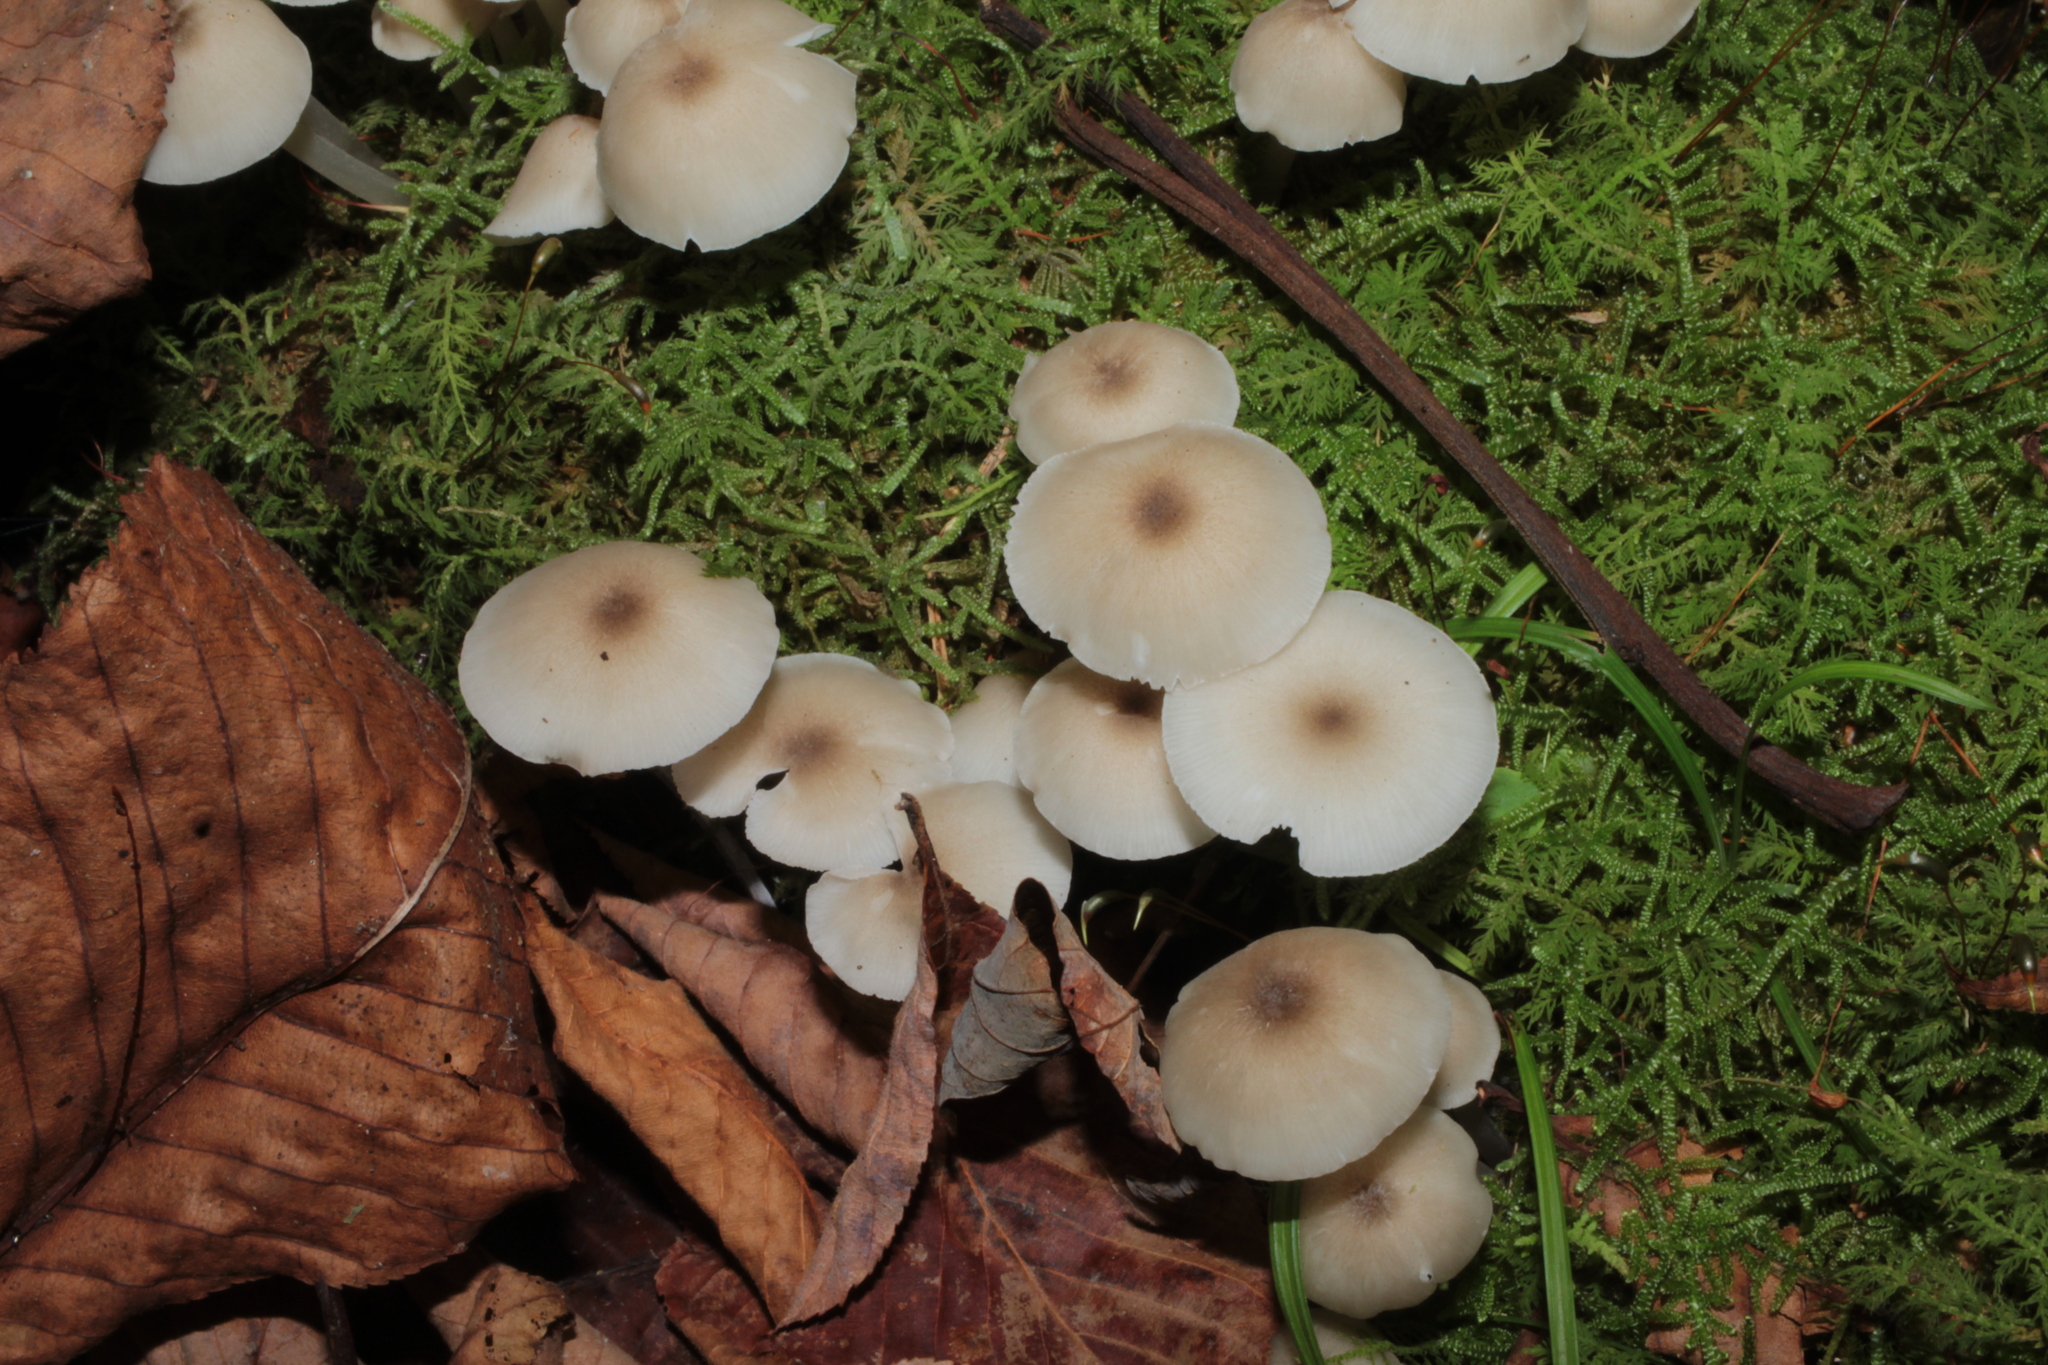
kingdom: Fungi
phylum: Basidiomycota
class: Agaricomycetes
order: Agaricales
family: Marasmiaceae
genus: Clitocybula
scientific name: Clitocybula oculus
